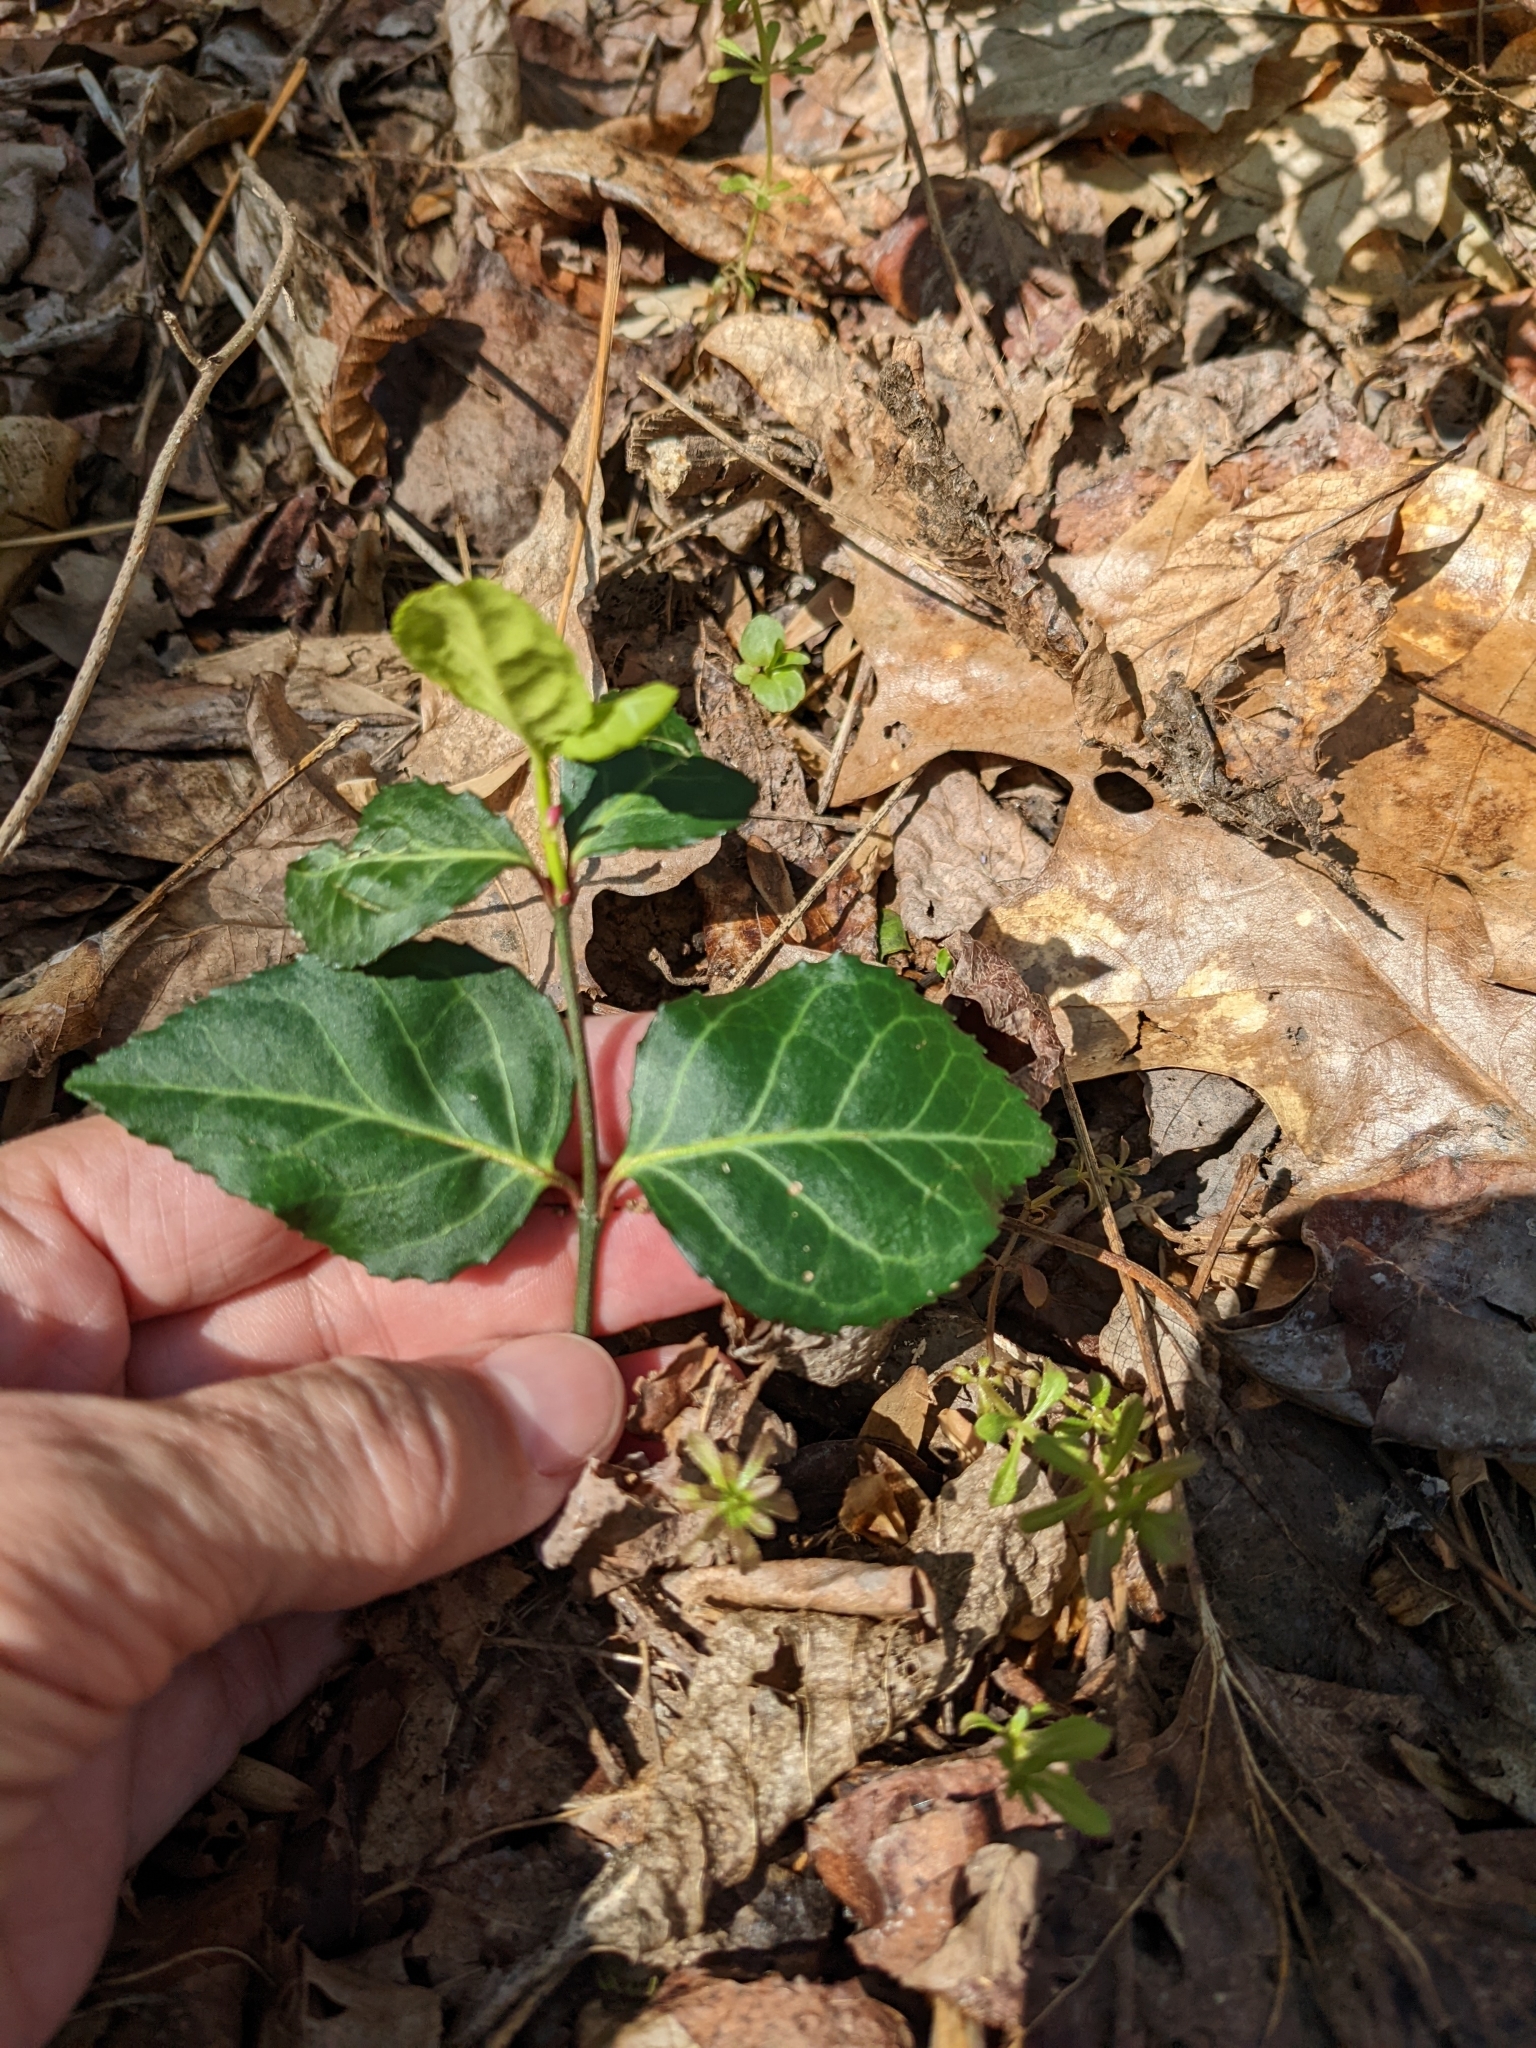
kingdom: Plantae
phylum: Tracheophyta
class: Magnoliopsida
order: Celastrales
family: Celastraceae
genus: Euonymus
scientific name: Euonymus fortunei
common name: Climbing euonymus
